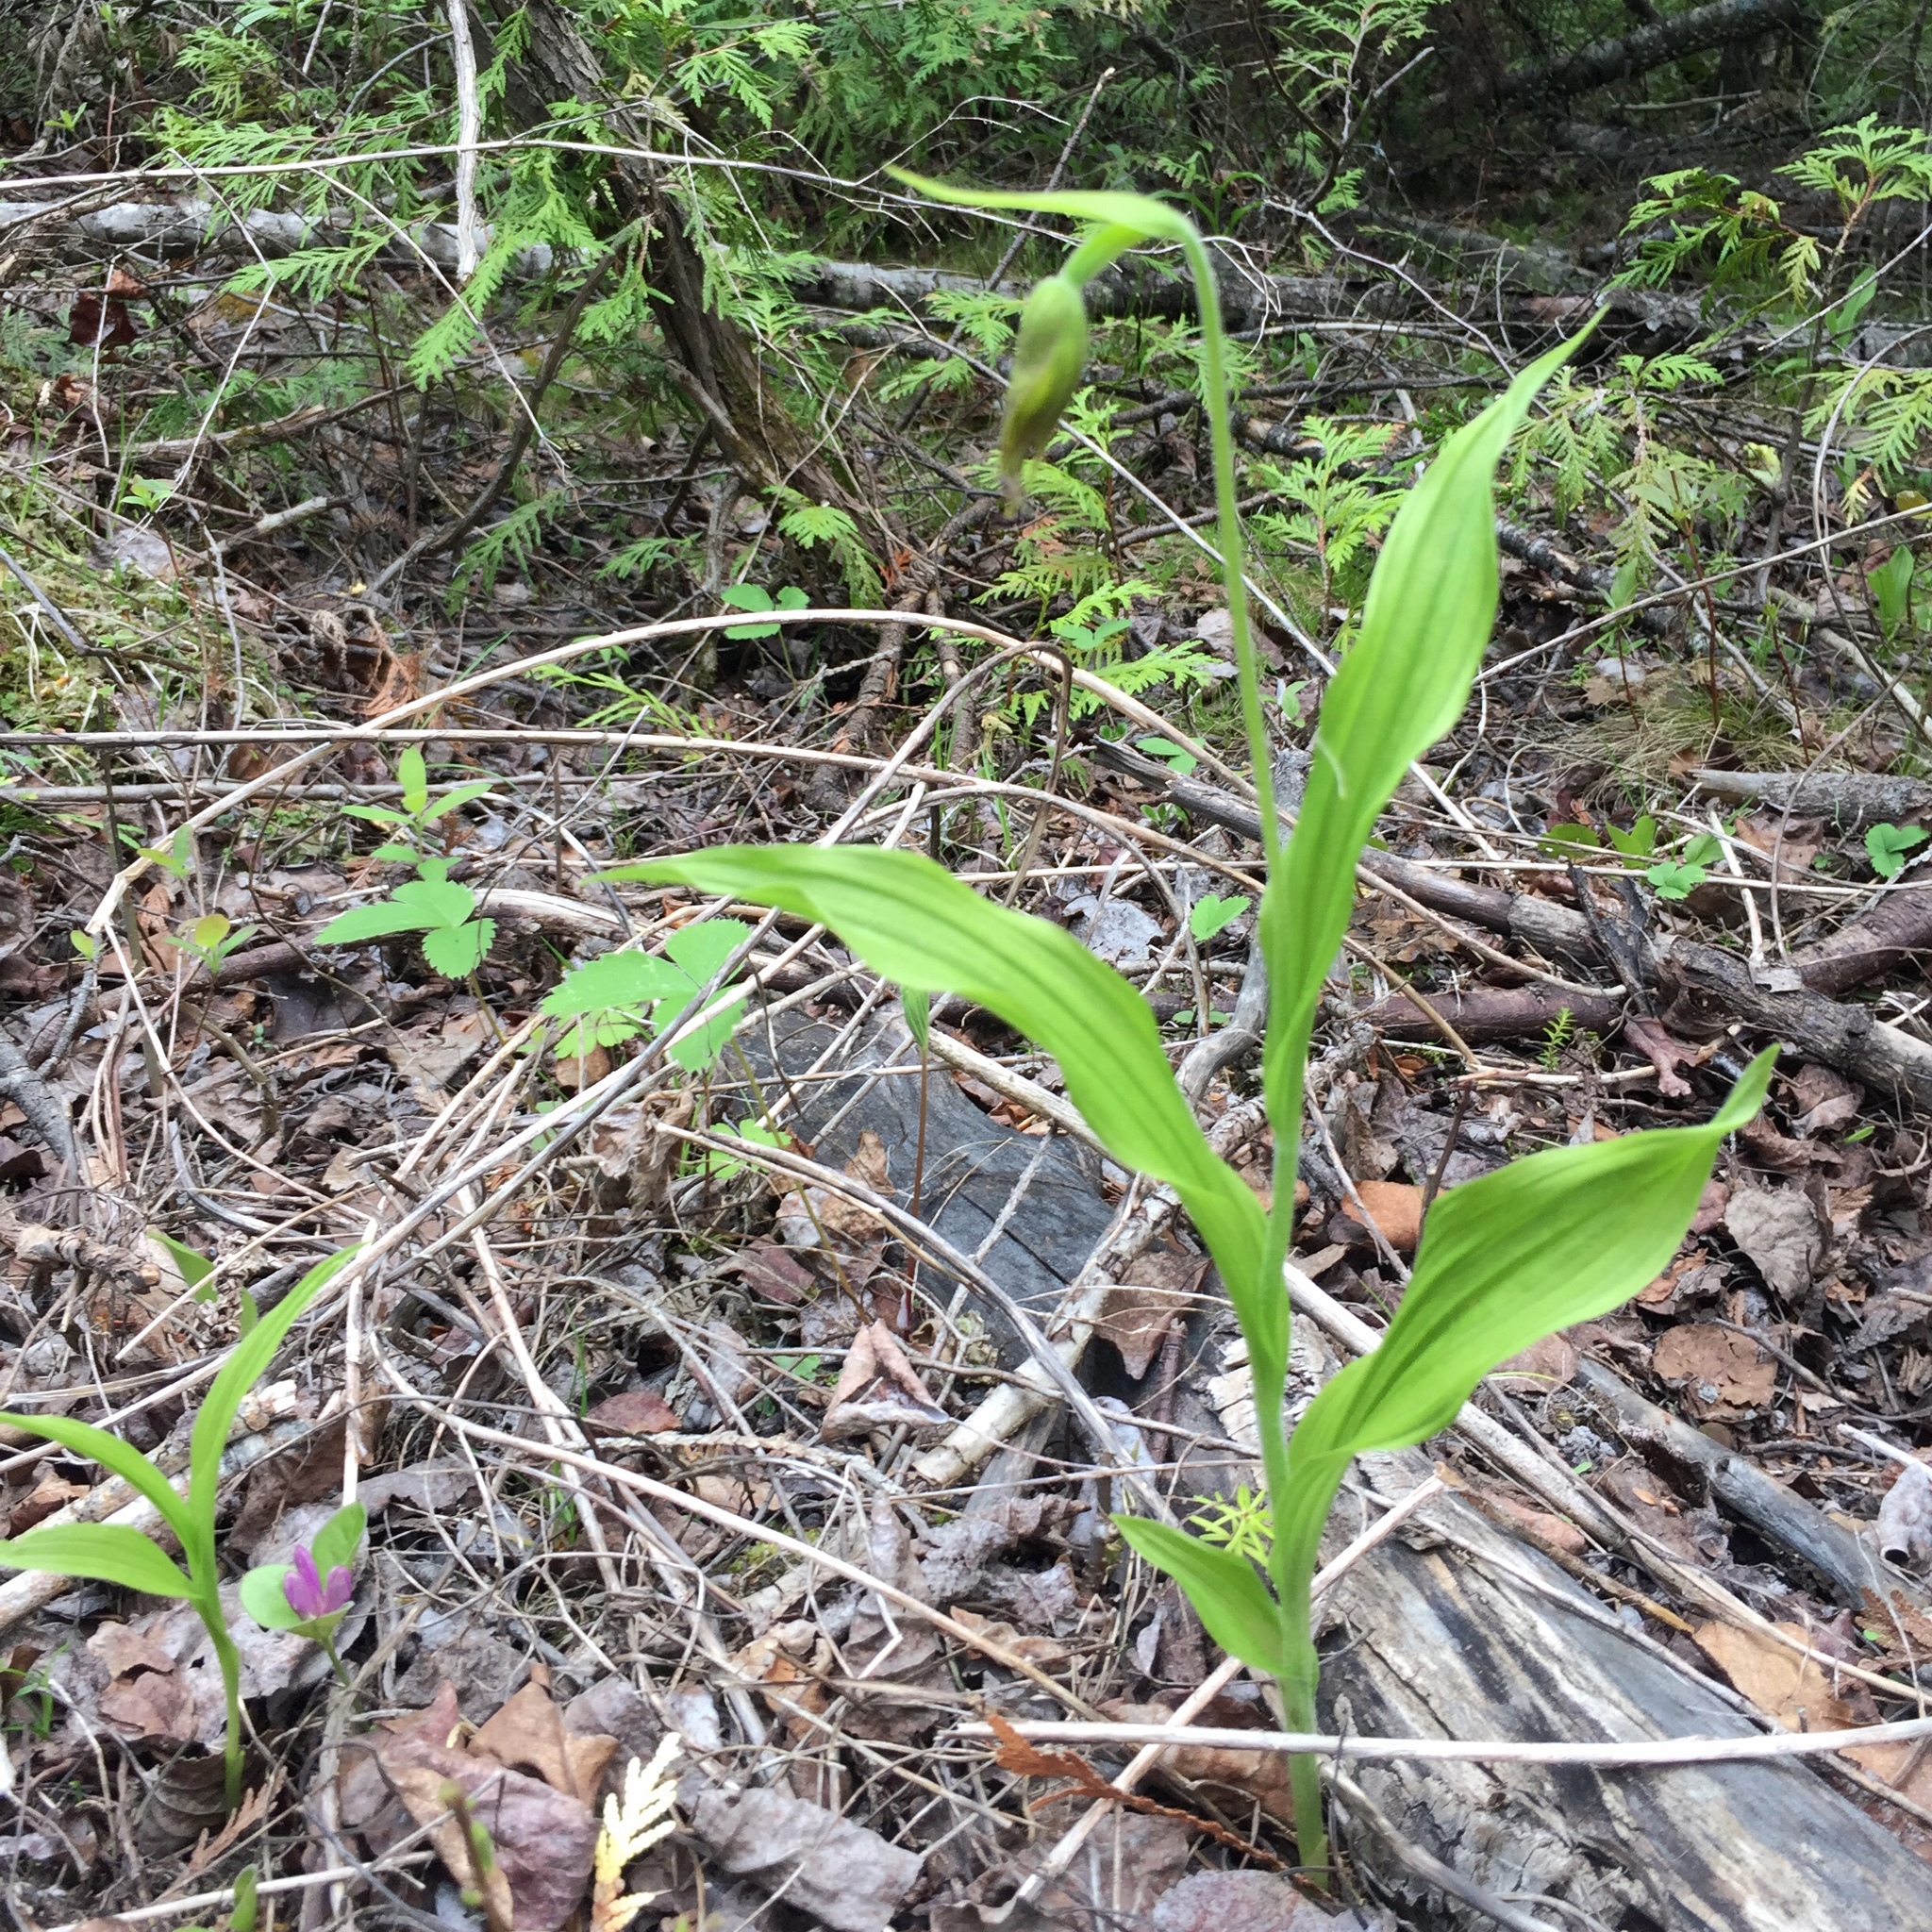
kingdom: Plantae
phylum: Tracheophyta
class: Liliopsida
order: Asparagales
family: Orchidaceae
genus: Cypripedium
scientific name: Cypripedium arietinum
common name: Ram's-head
